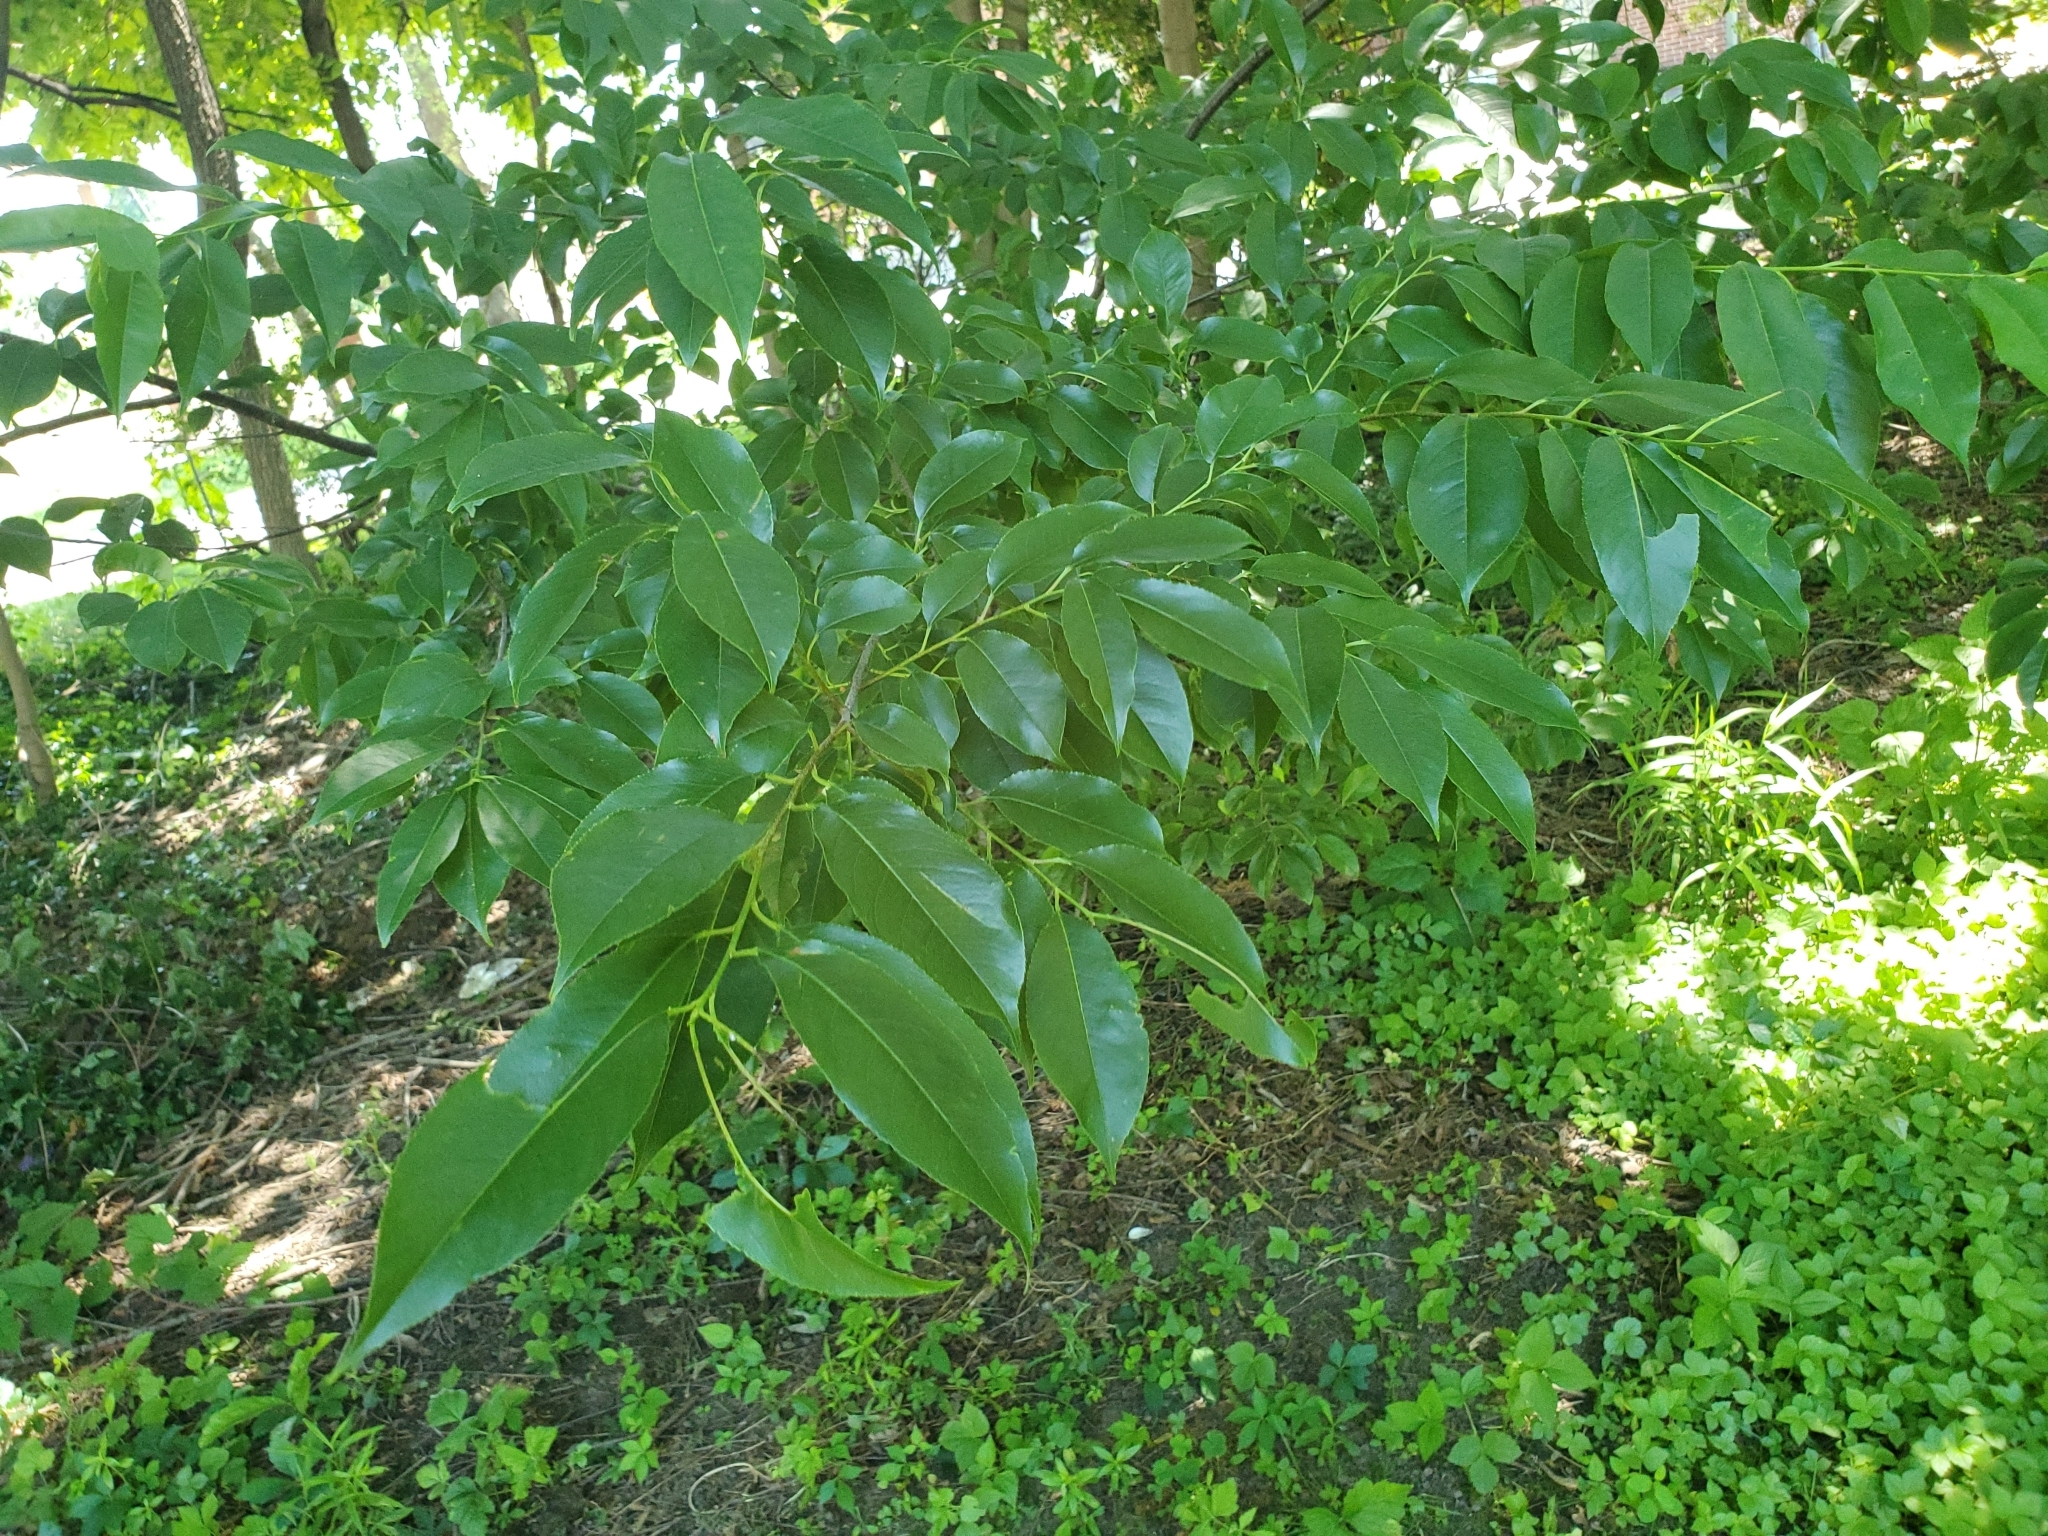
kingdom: Plantae
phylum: Tracheophyta
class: Magnoliopsida
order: Rosales
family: Rosaceae
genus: Prunus
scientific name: Prunus serotina
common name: Black cherry
